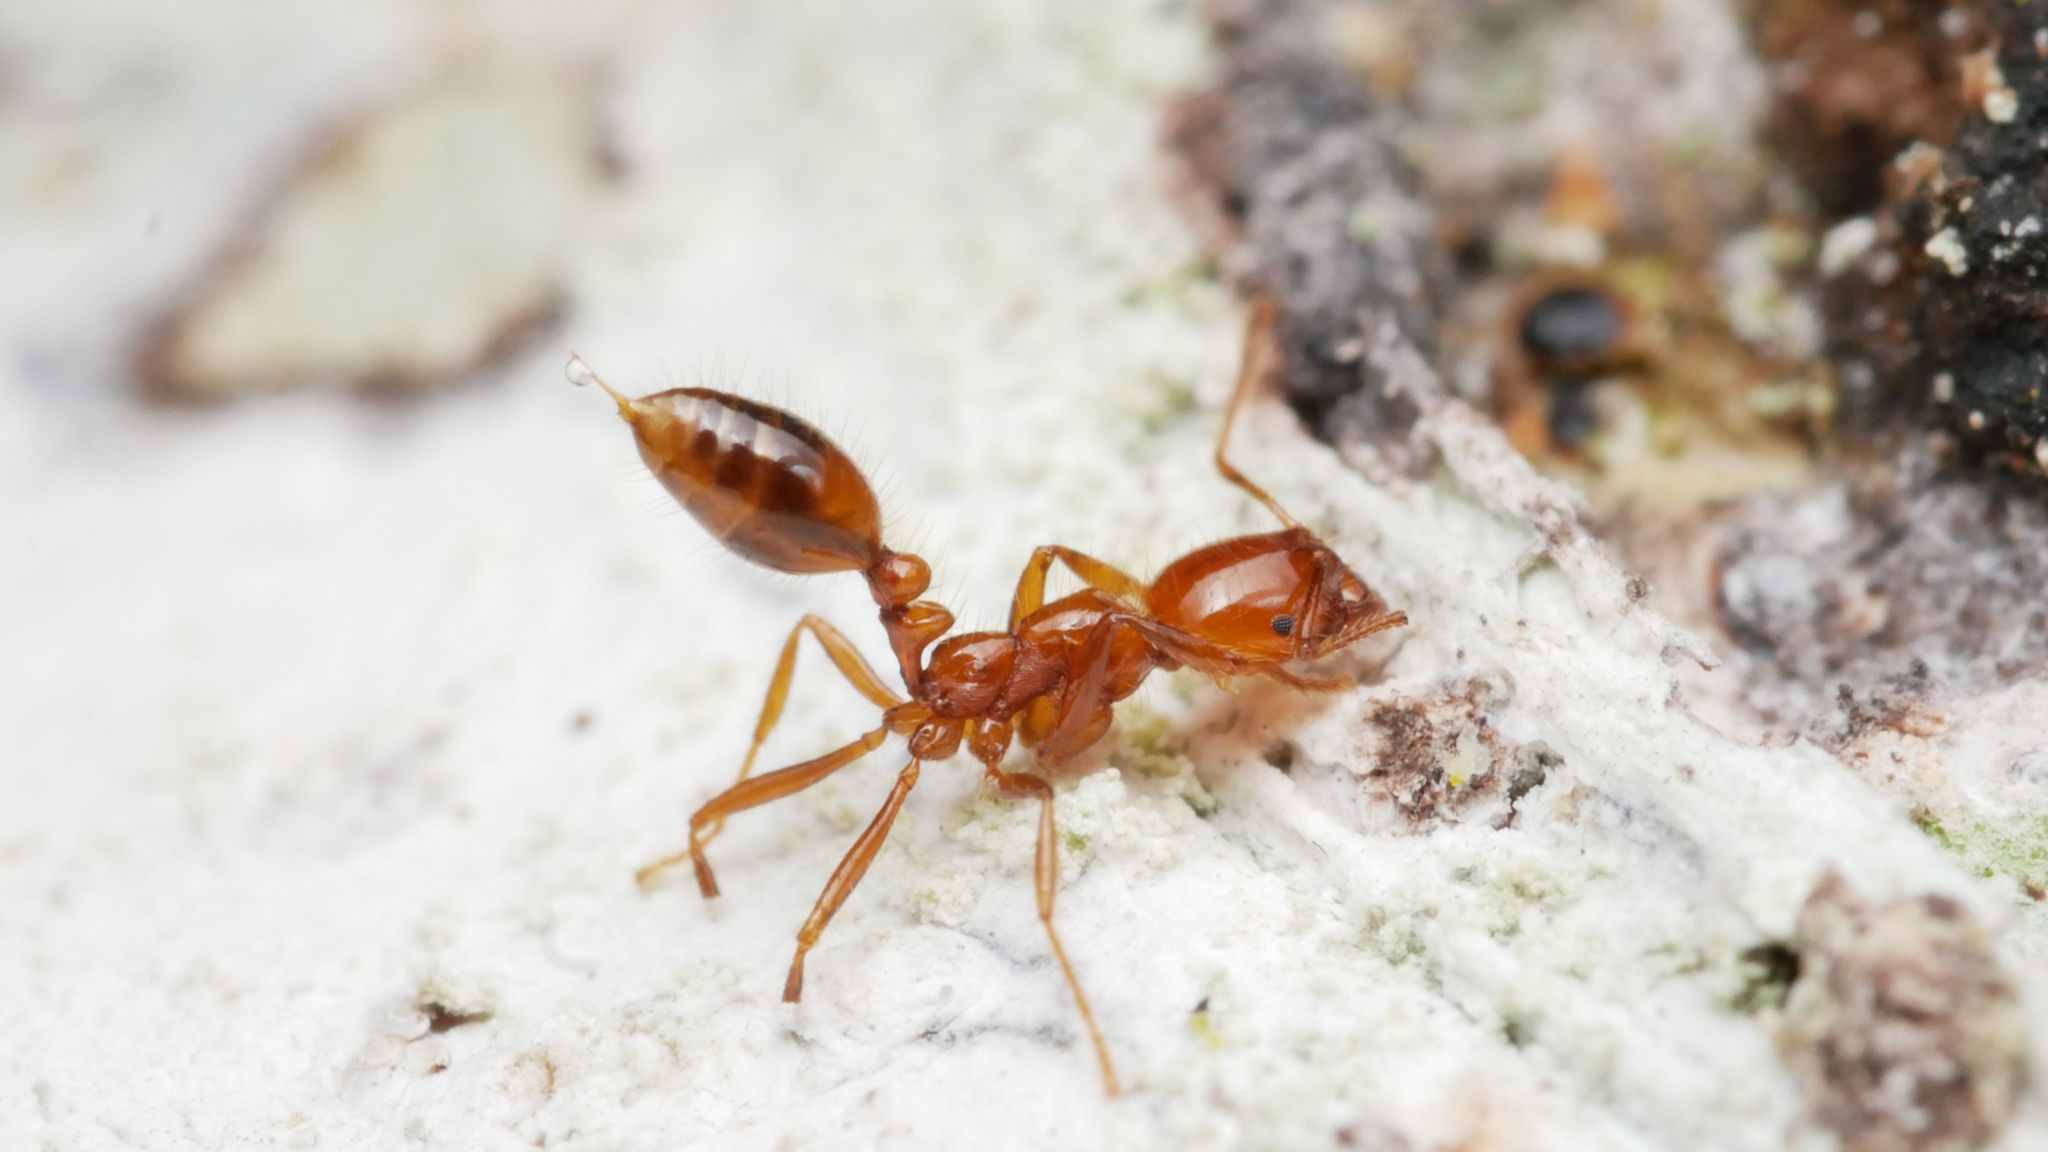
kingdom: Animalia
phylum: Arthropoda
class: Insecta
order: Hymenoptera
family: Formicidae
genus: Solenopsis
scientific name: Solenopsis geminata
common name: Tropical fire ant
